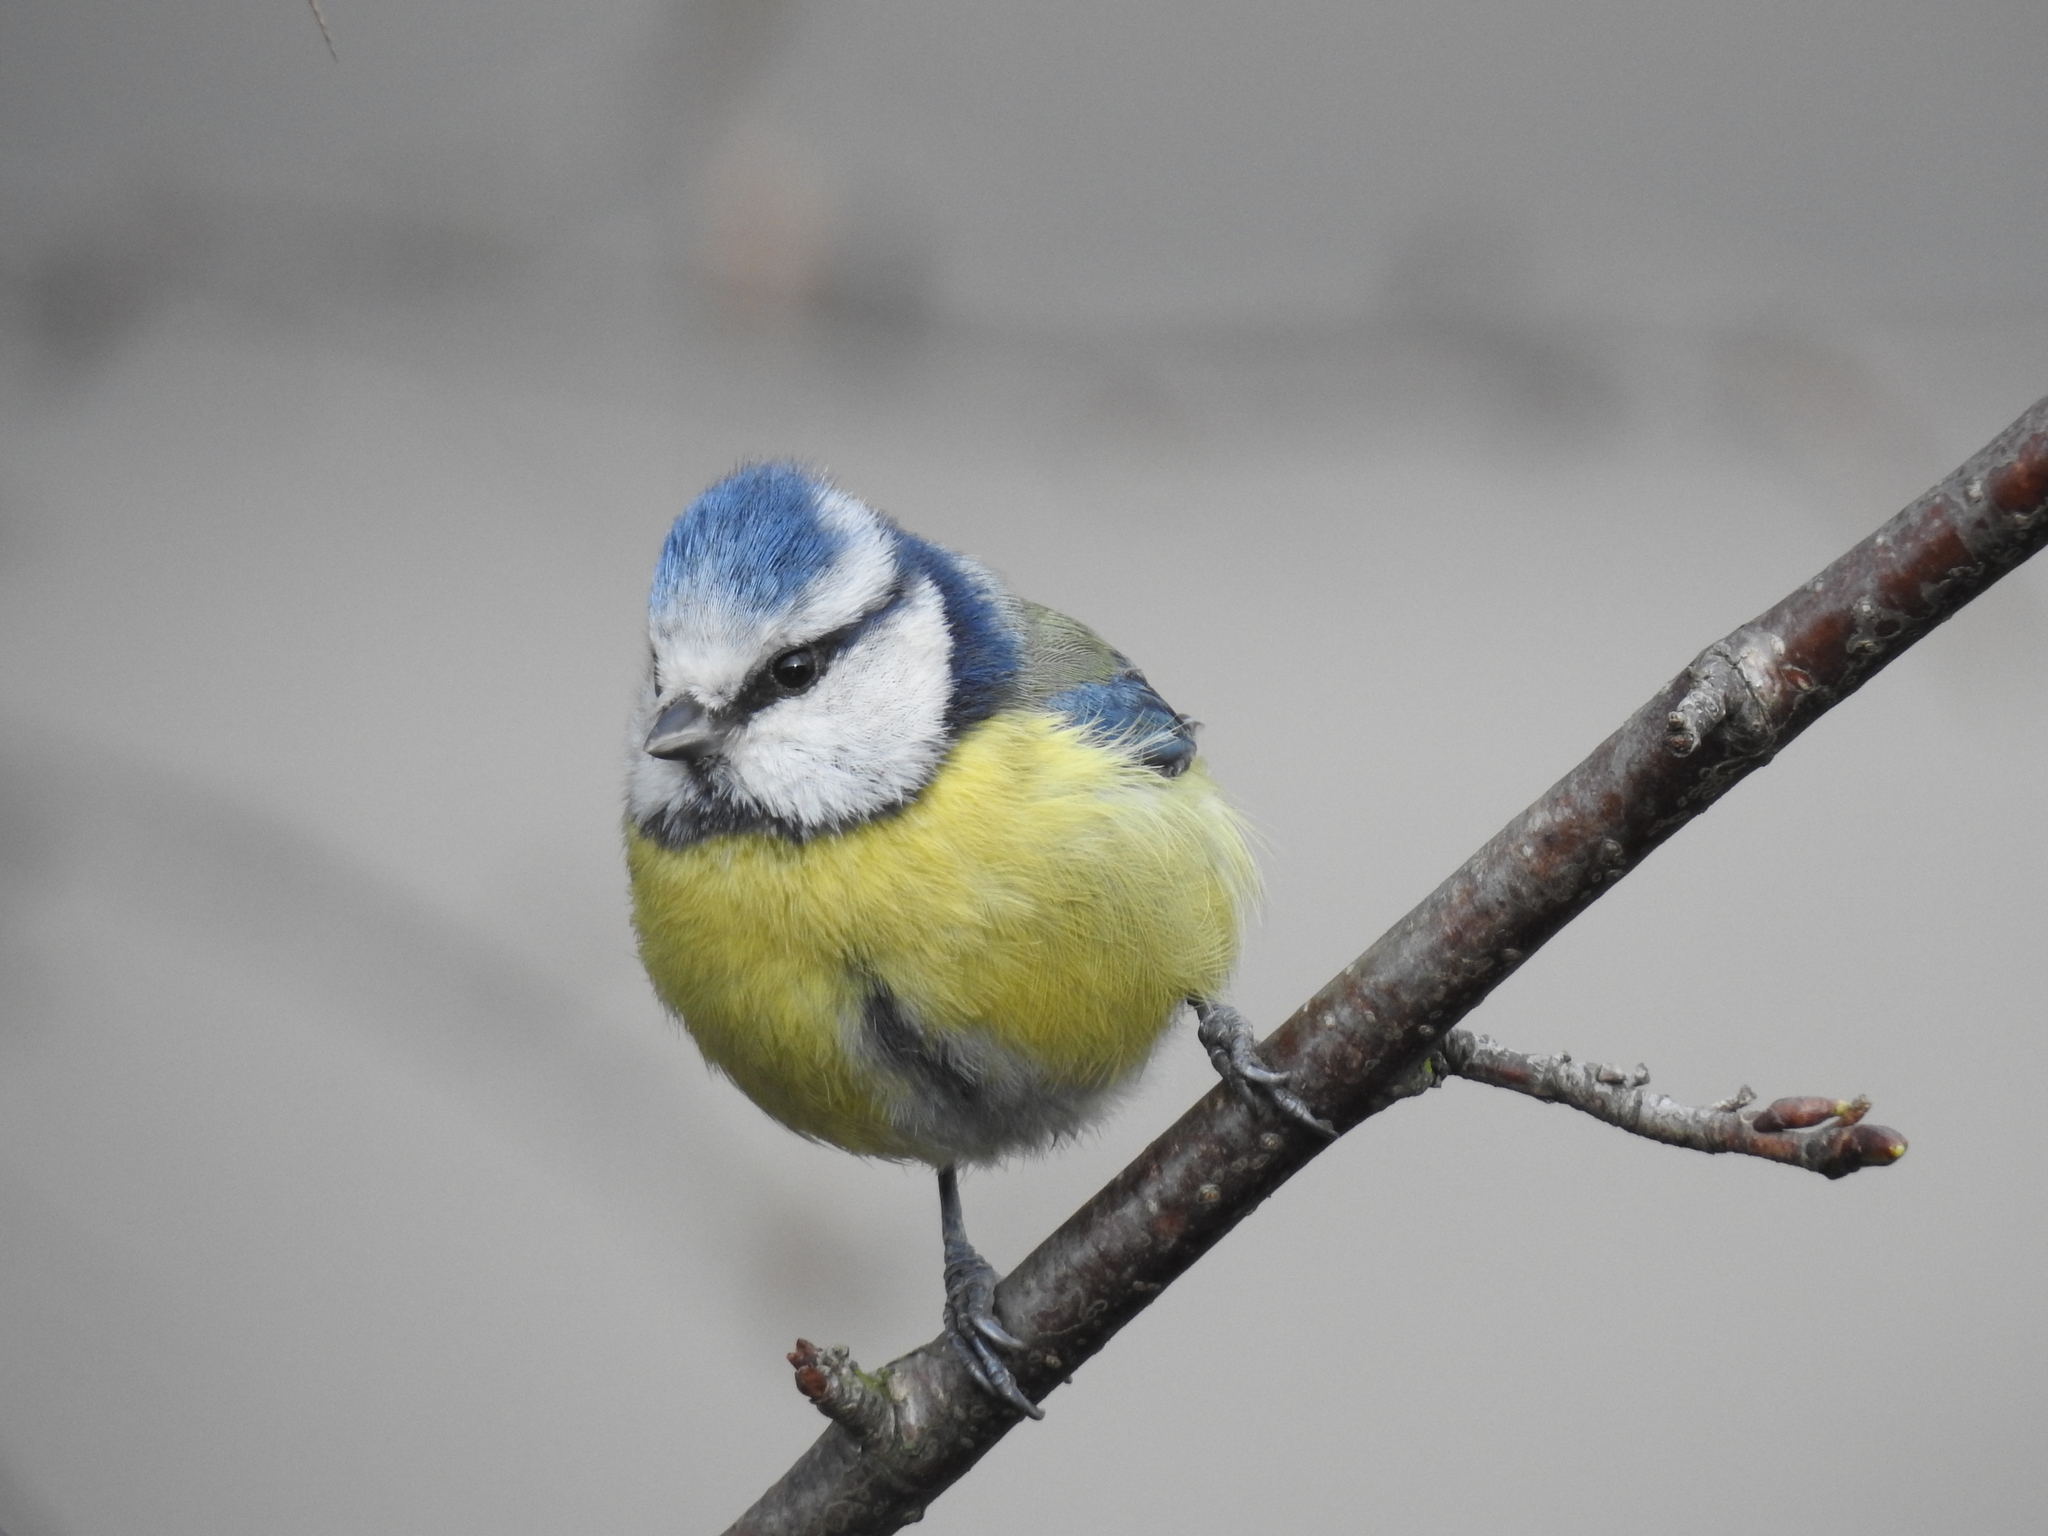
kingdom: Animalia
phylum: Chordata
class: Aves
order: Passeriformes
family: Paridae
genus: Cyanistes
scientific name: Cyanistes caeruleus
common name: Eurasian blue tit
